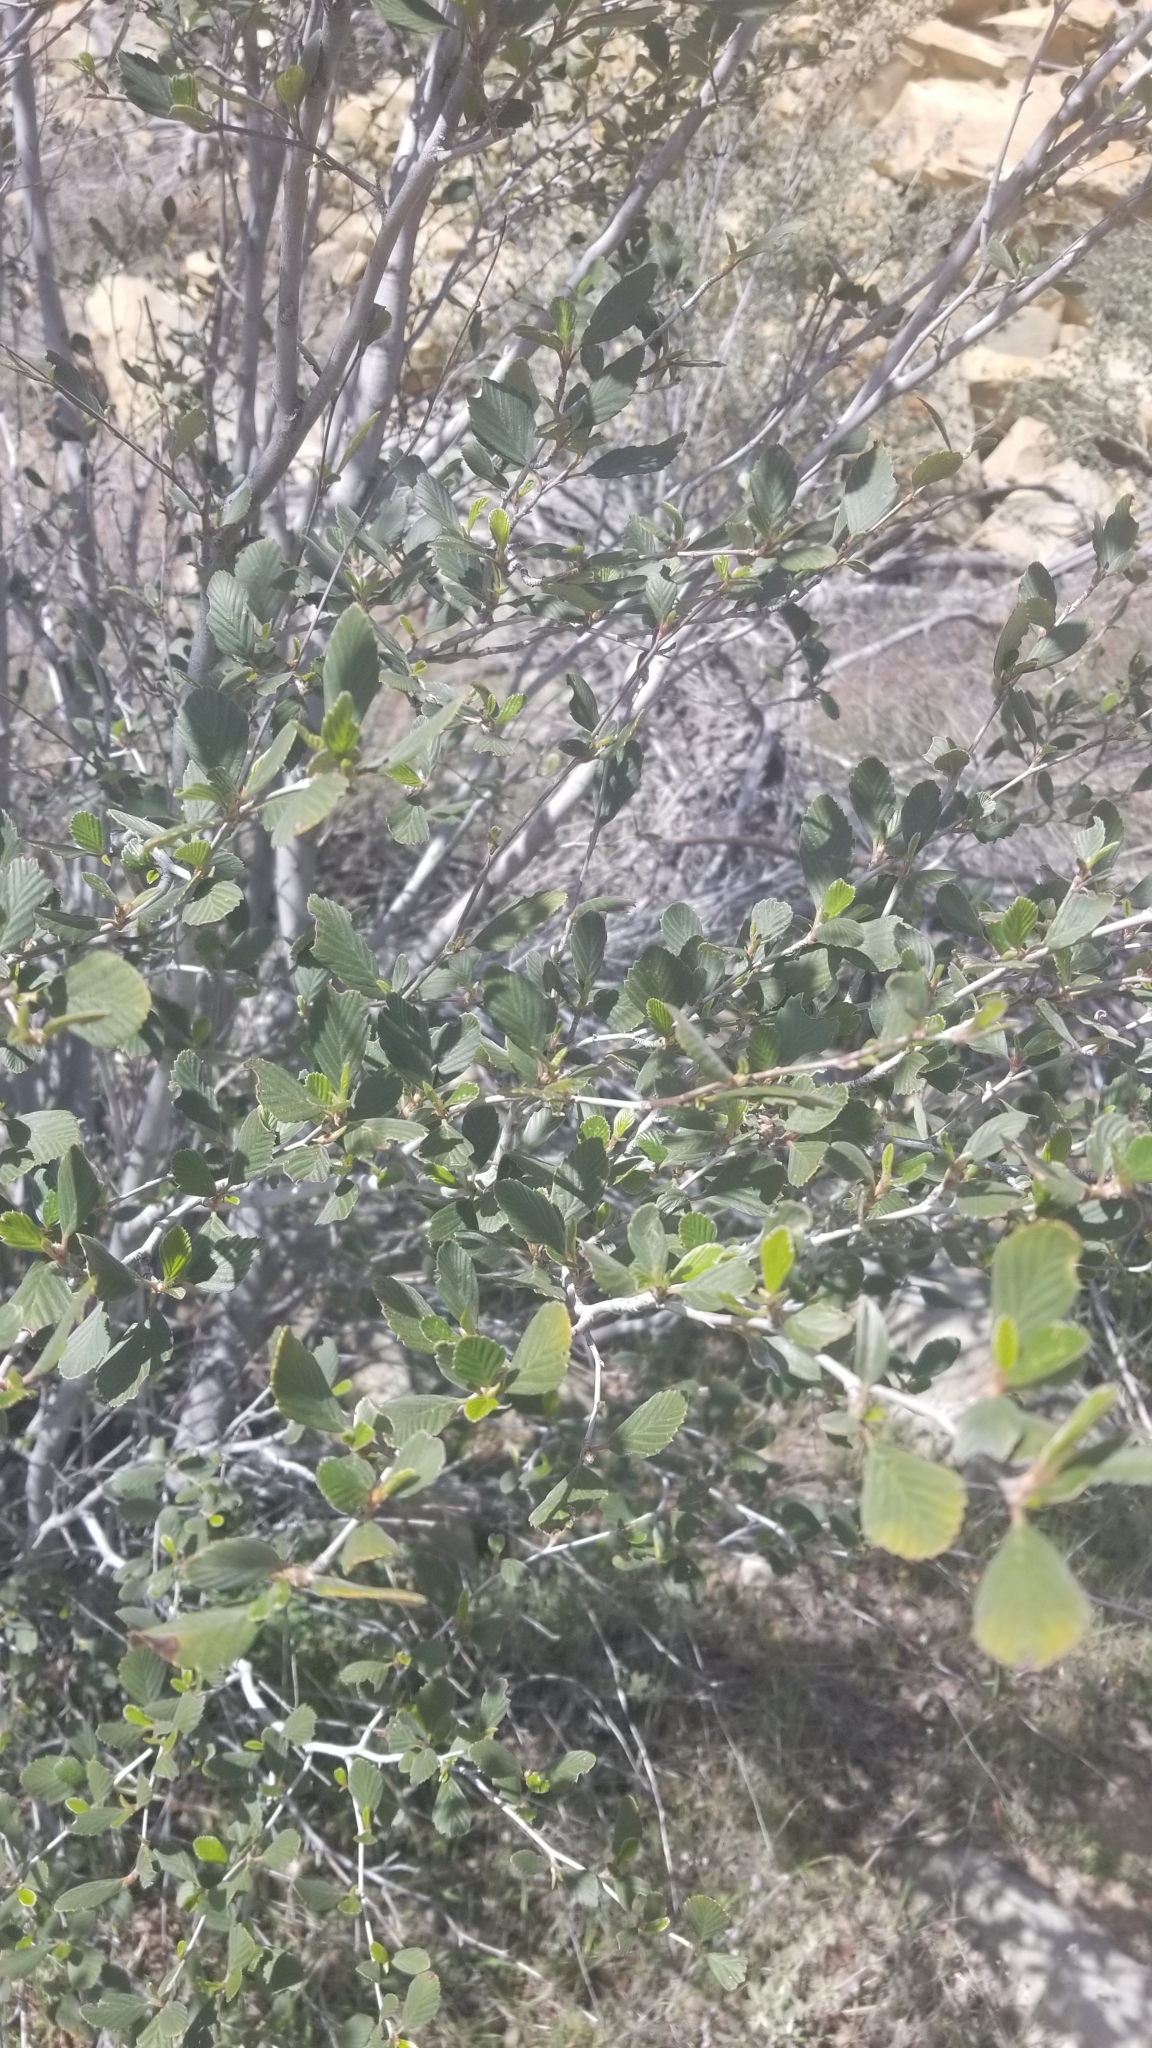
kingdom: Plantae
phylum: Tracheophyta
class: Magnoliopsida
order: Rosales
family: Rosaceae
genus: Cercocarpus
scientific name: Cercocarpus betuloides
